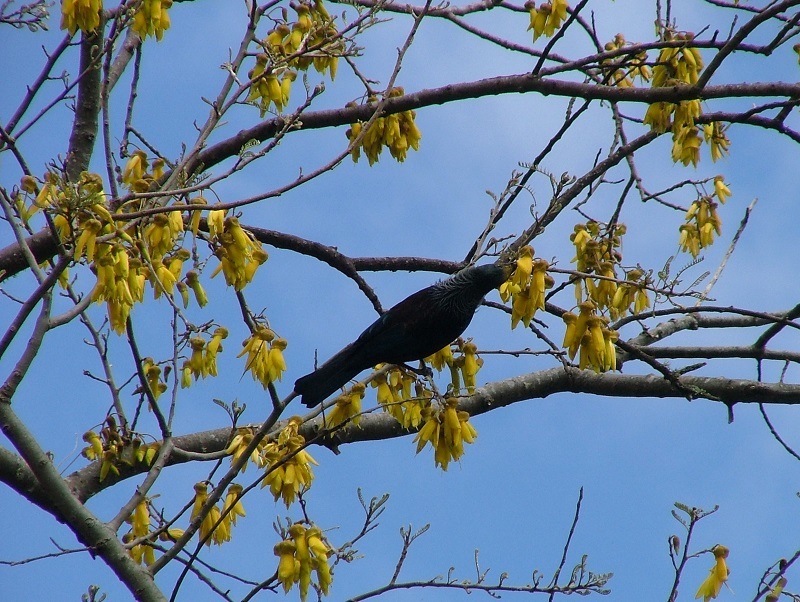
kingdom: Animalia
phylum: Chordata
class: Aves
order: Passeriformes
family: Meliphagidae
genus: Prosthemadera
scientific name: Prosthemadera novaeseelandiae
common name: Tui
